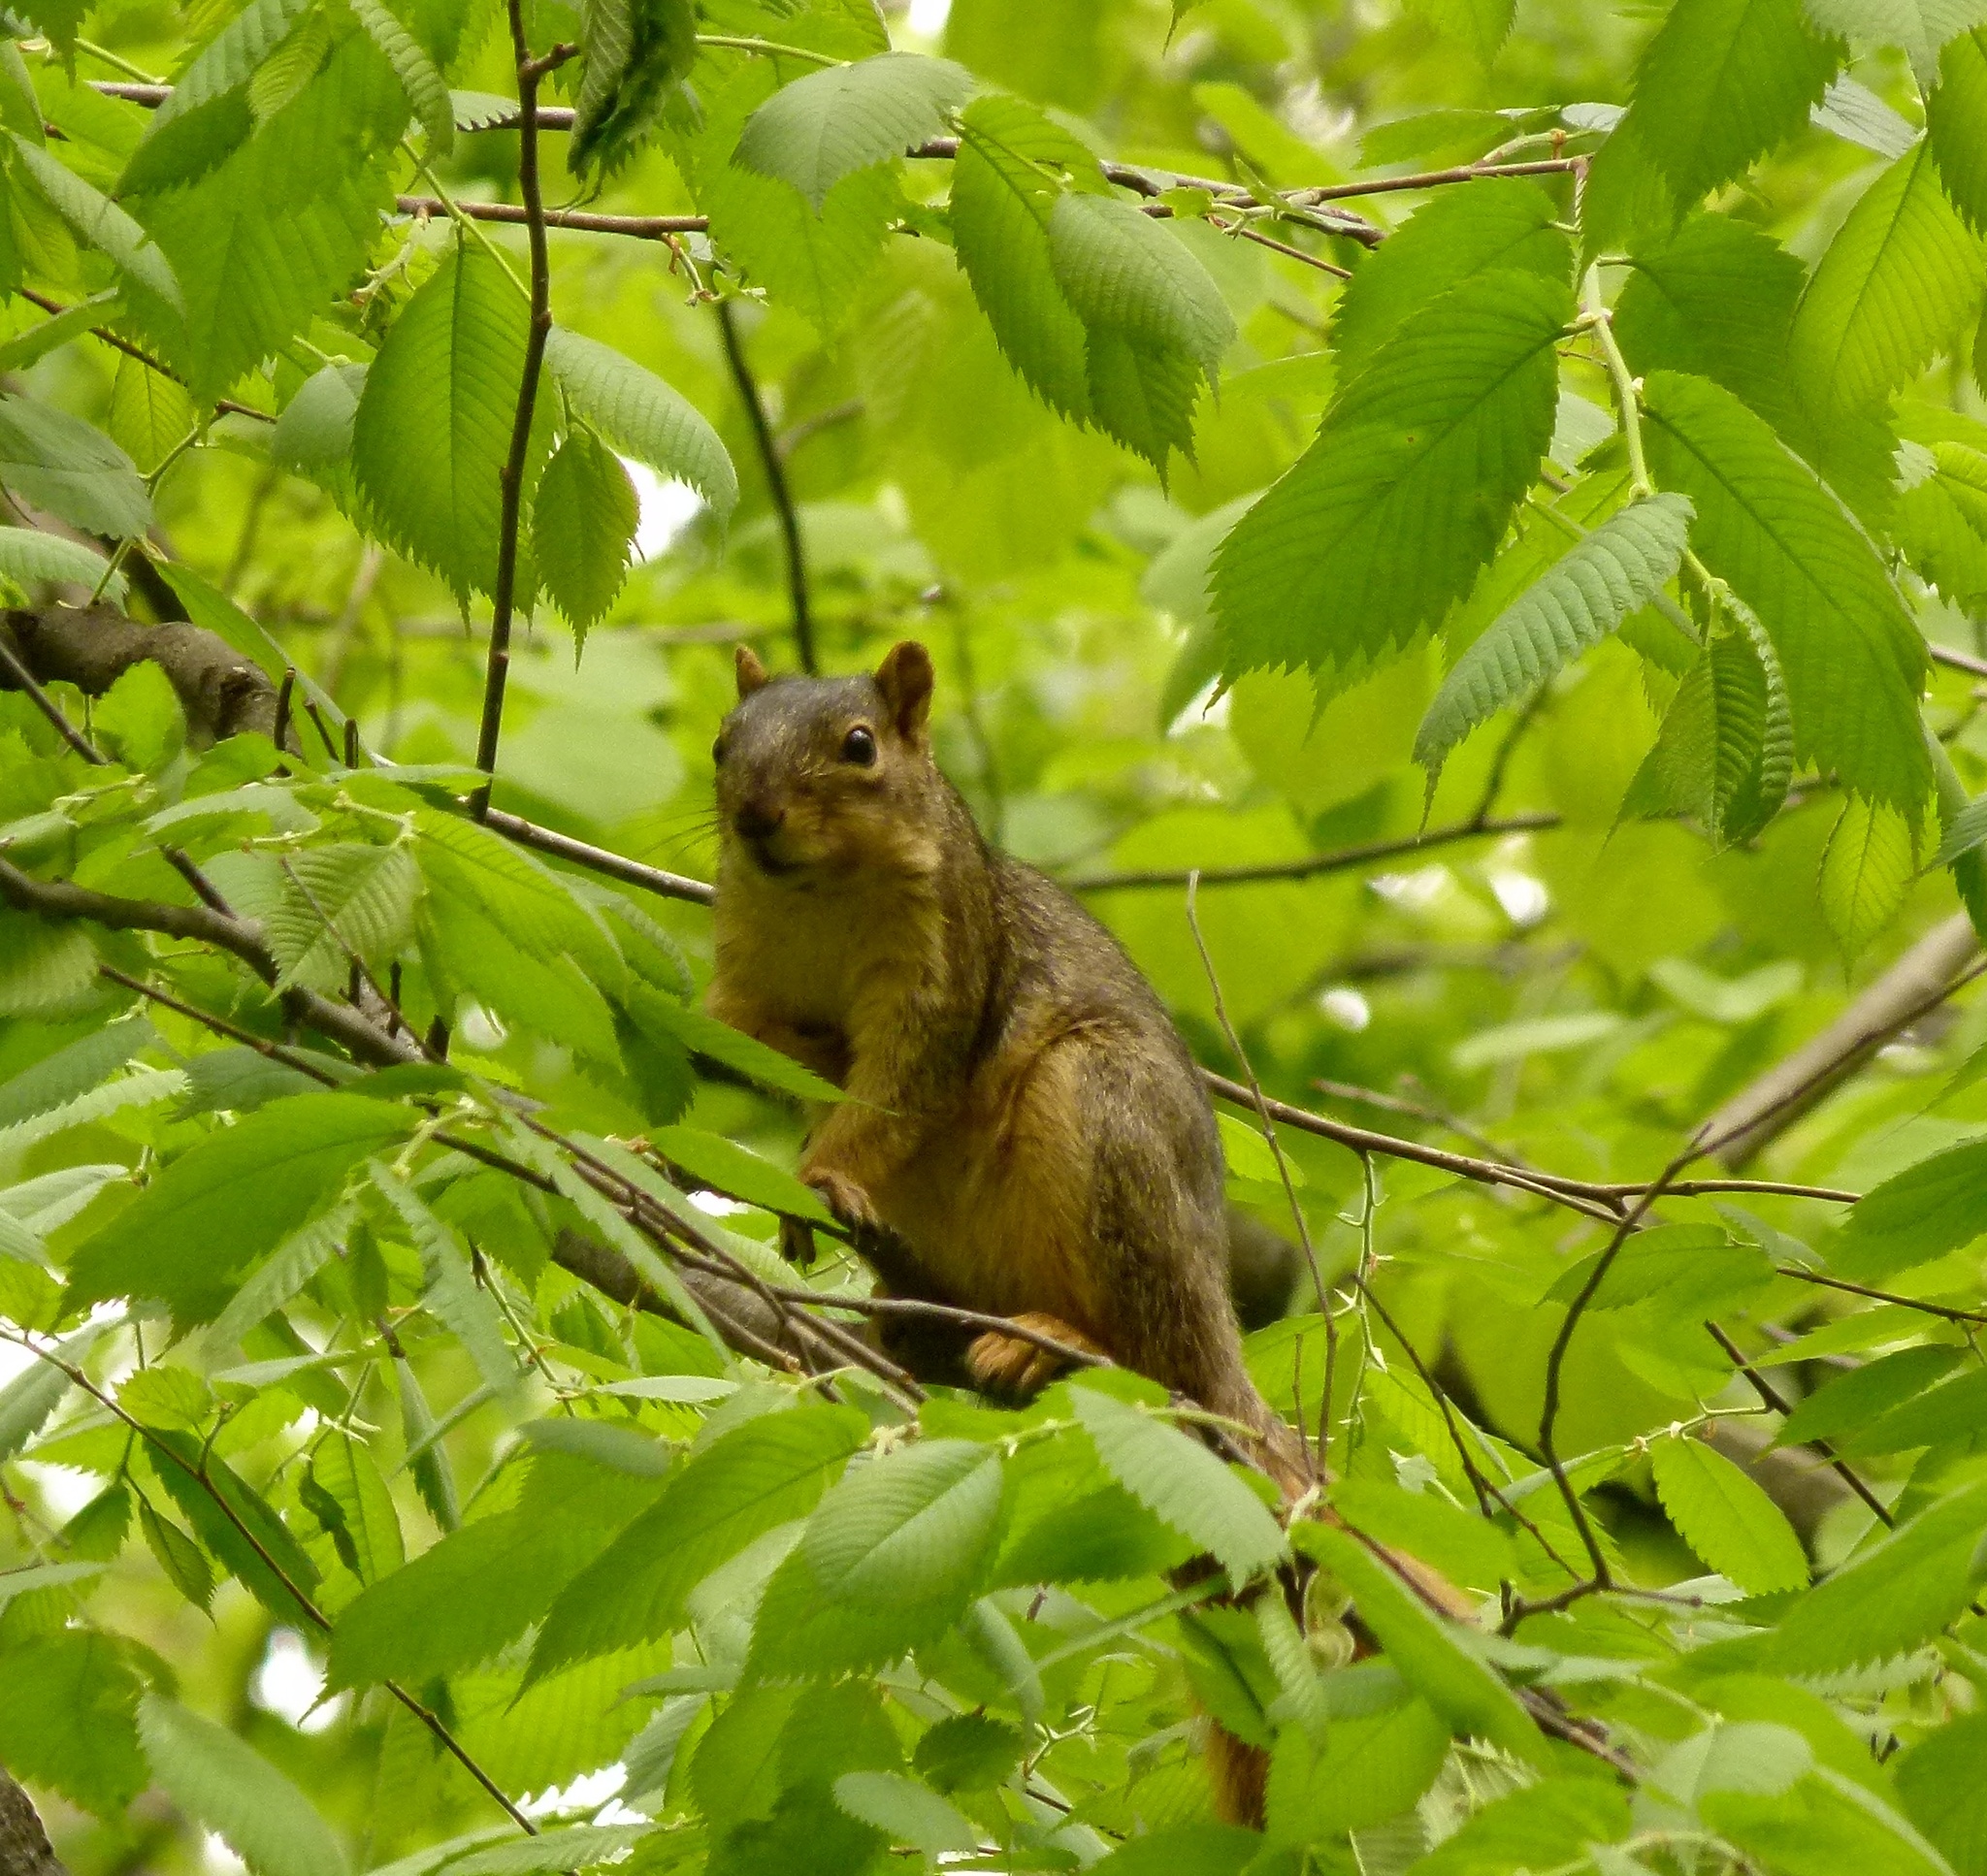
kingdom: Animalia
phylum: Chordata
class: Mammalia
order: Rodentia
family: Sciuridae
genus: Sciurus
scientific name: Sciurus niger
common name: Fox squirrel
